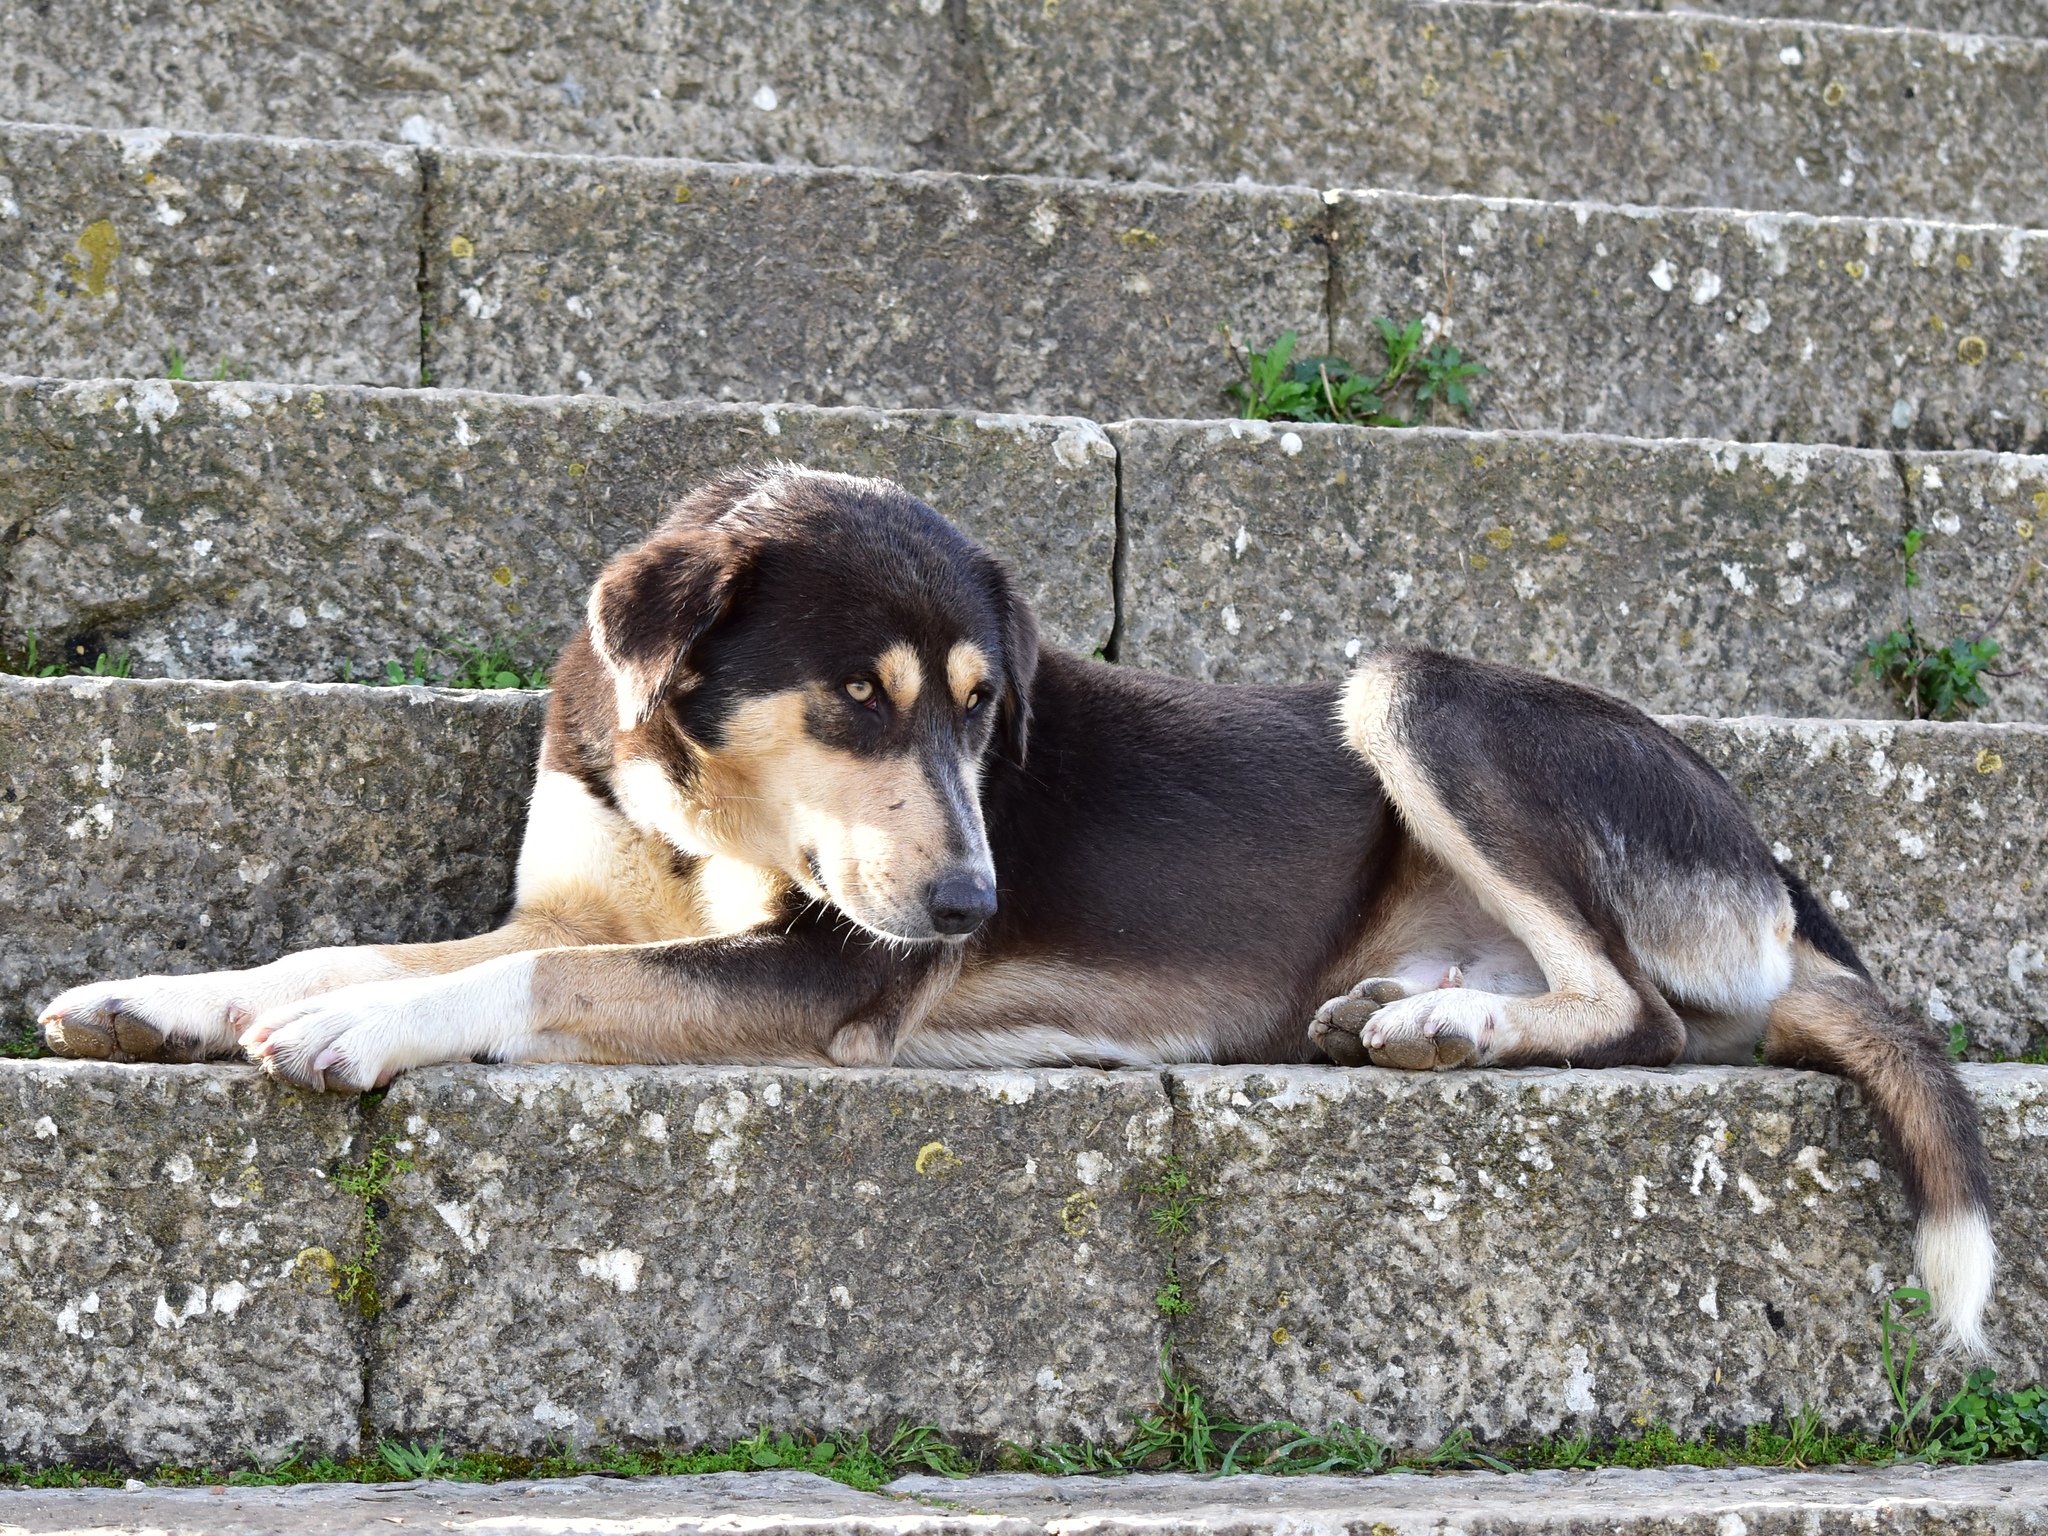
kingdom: Animalia
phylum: Chordata
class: Mammalia
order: Carnivora
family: Canidae
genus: Canis
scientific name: Canis lupus
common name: Gray wolf
